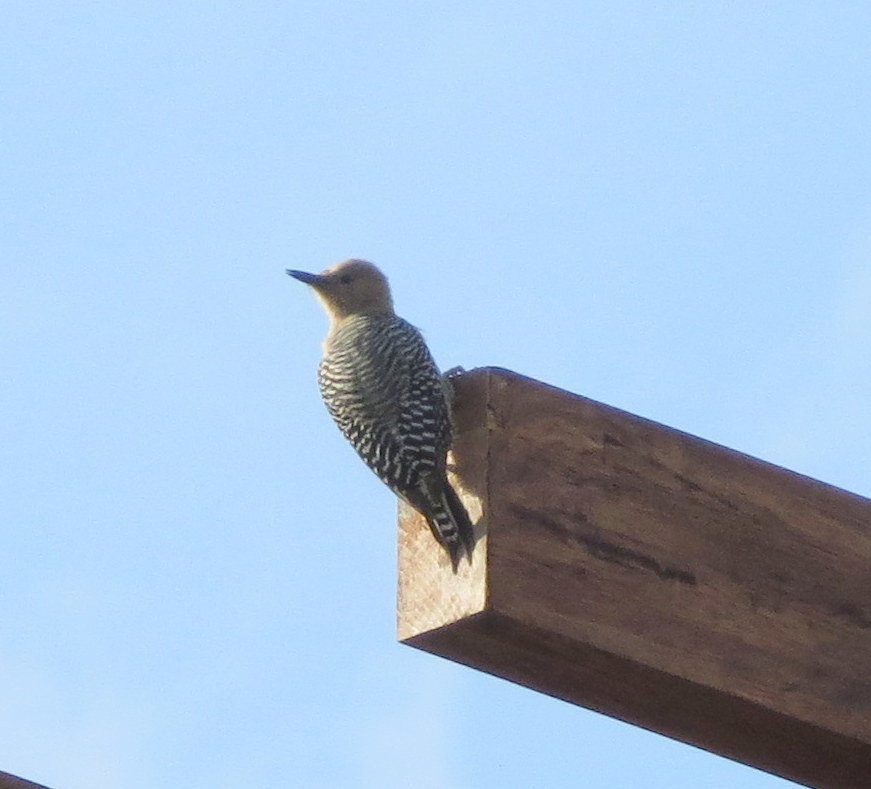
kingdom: Animalia
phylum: Chordata
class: Aves
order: Piciformes
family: Picidae
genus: Melanerpes
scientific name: Melanerpes uropygialis
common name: Gila woodpecker
